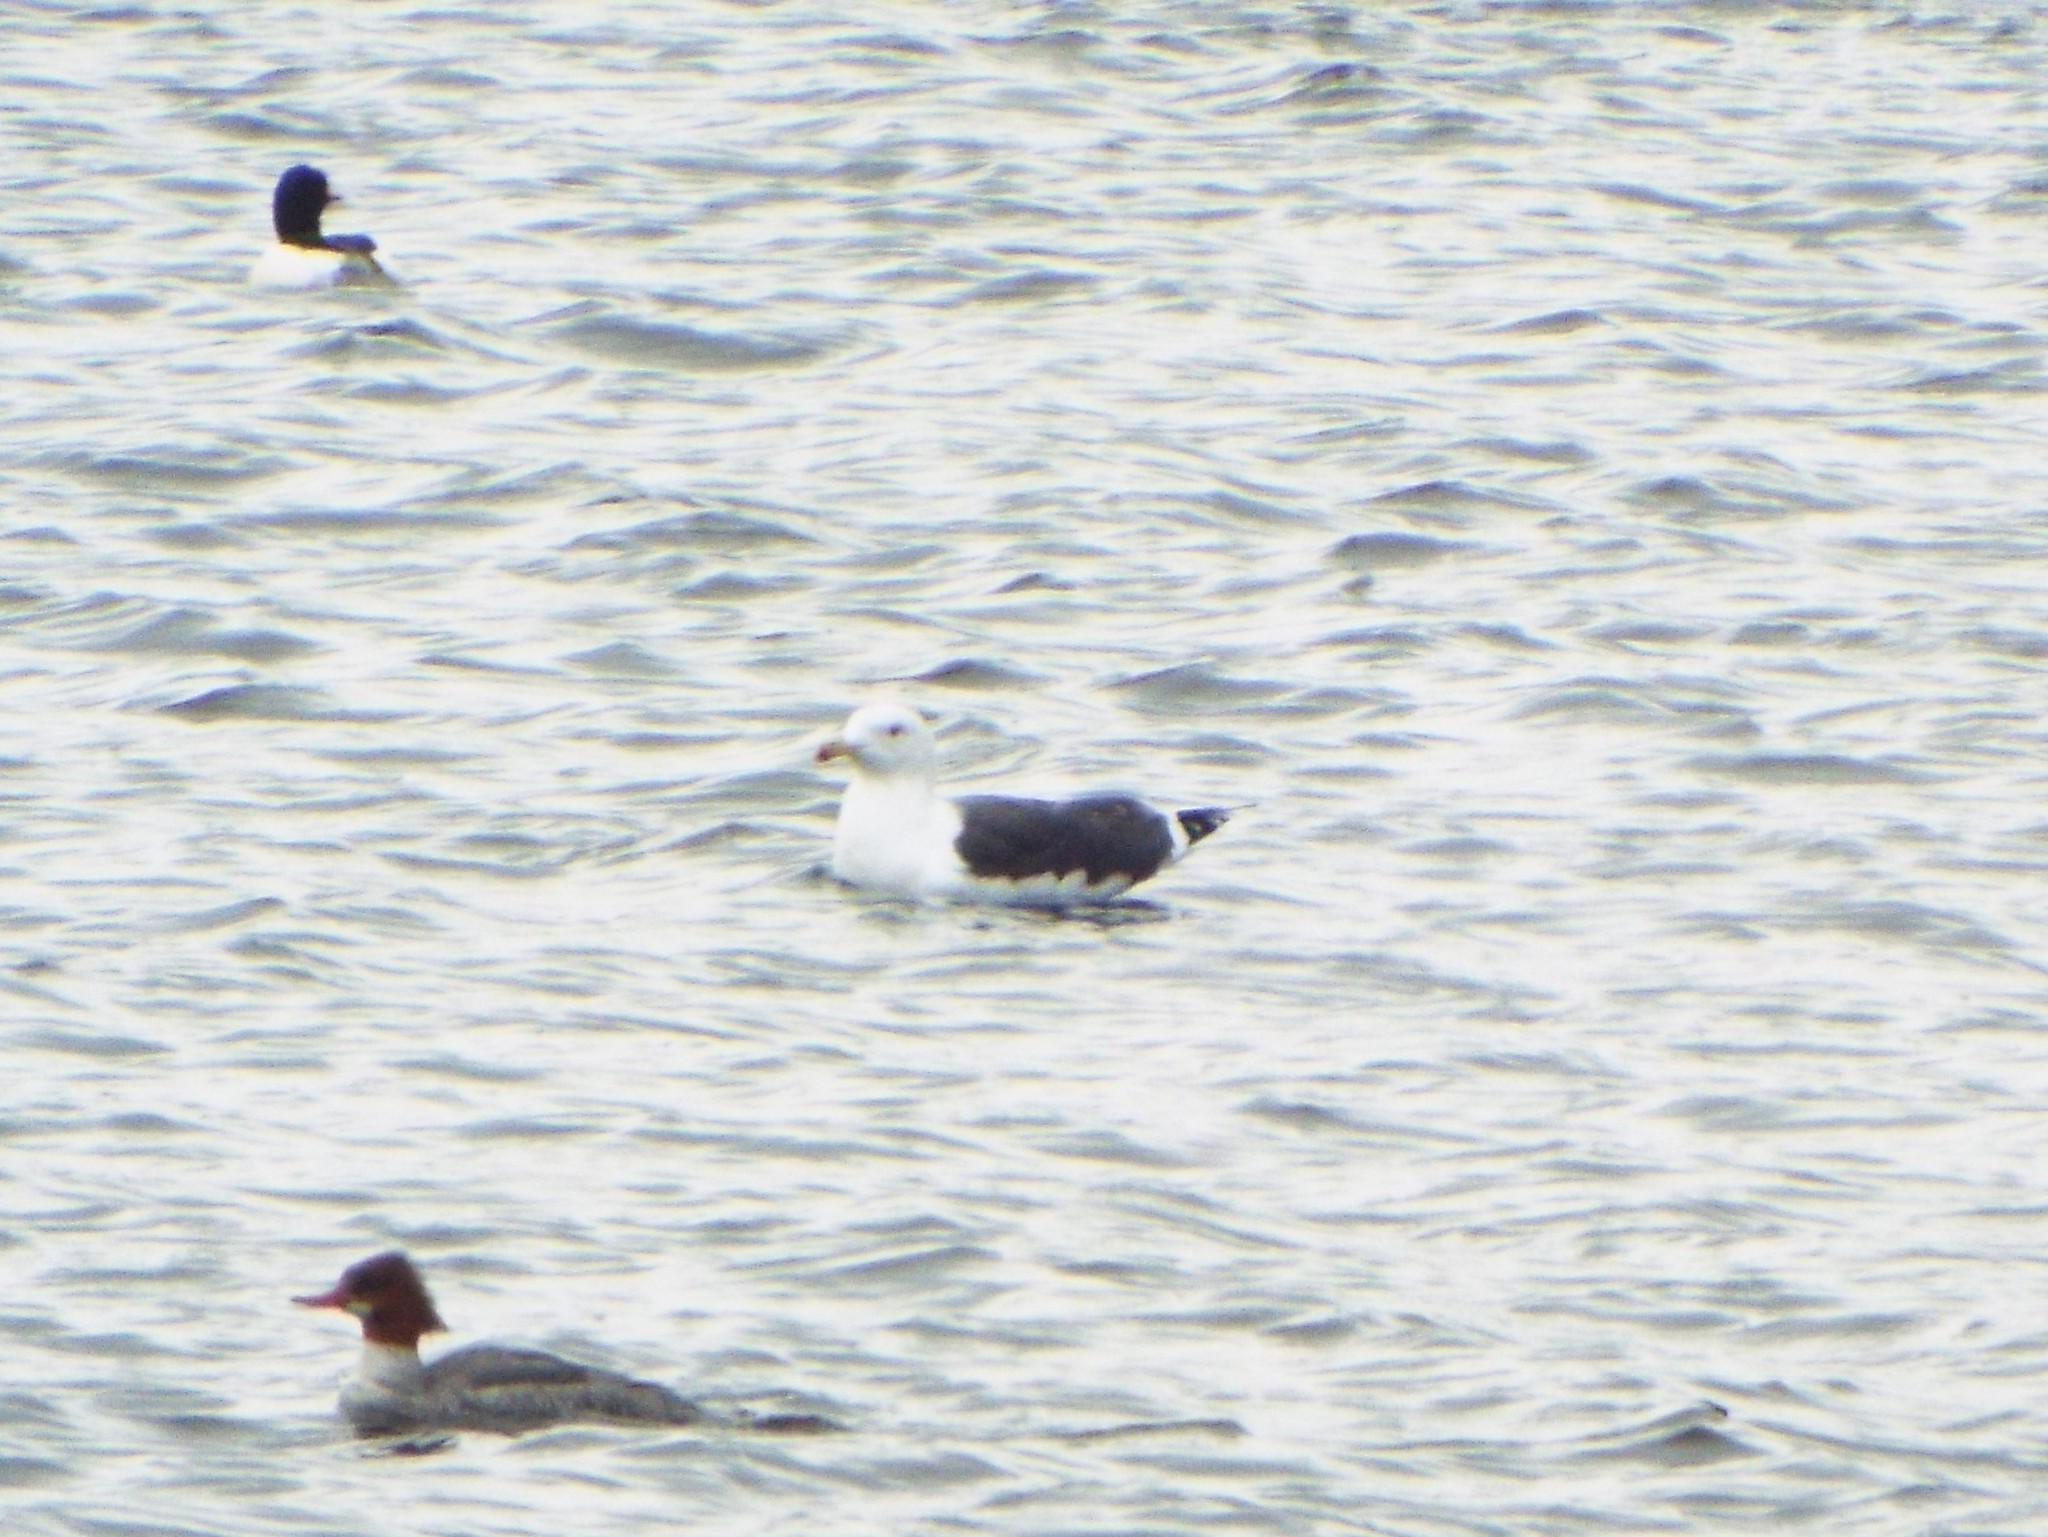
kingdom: Animalia
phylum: Chordata
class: Aves
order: Charadriiformes
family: Laridae
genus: Larus
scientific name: Larus marinus
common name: Great black-backed gull
